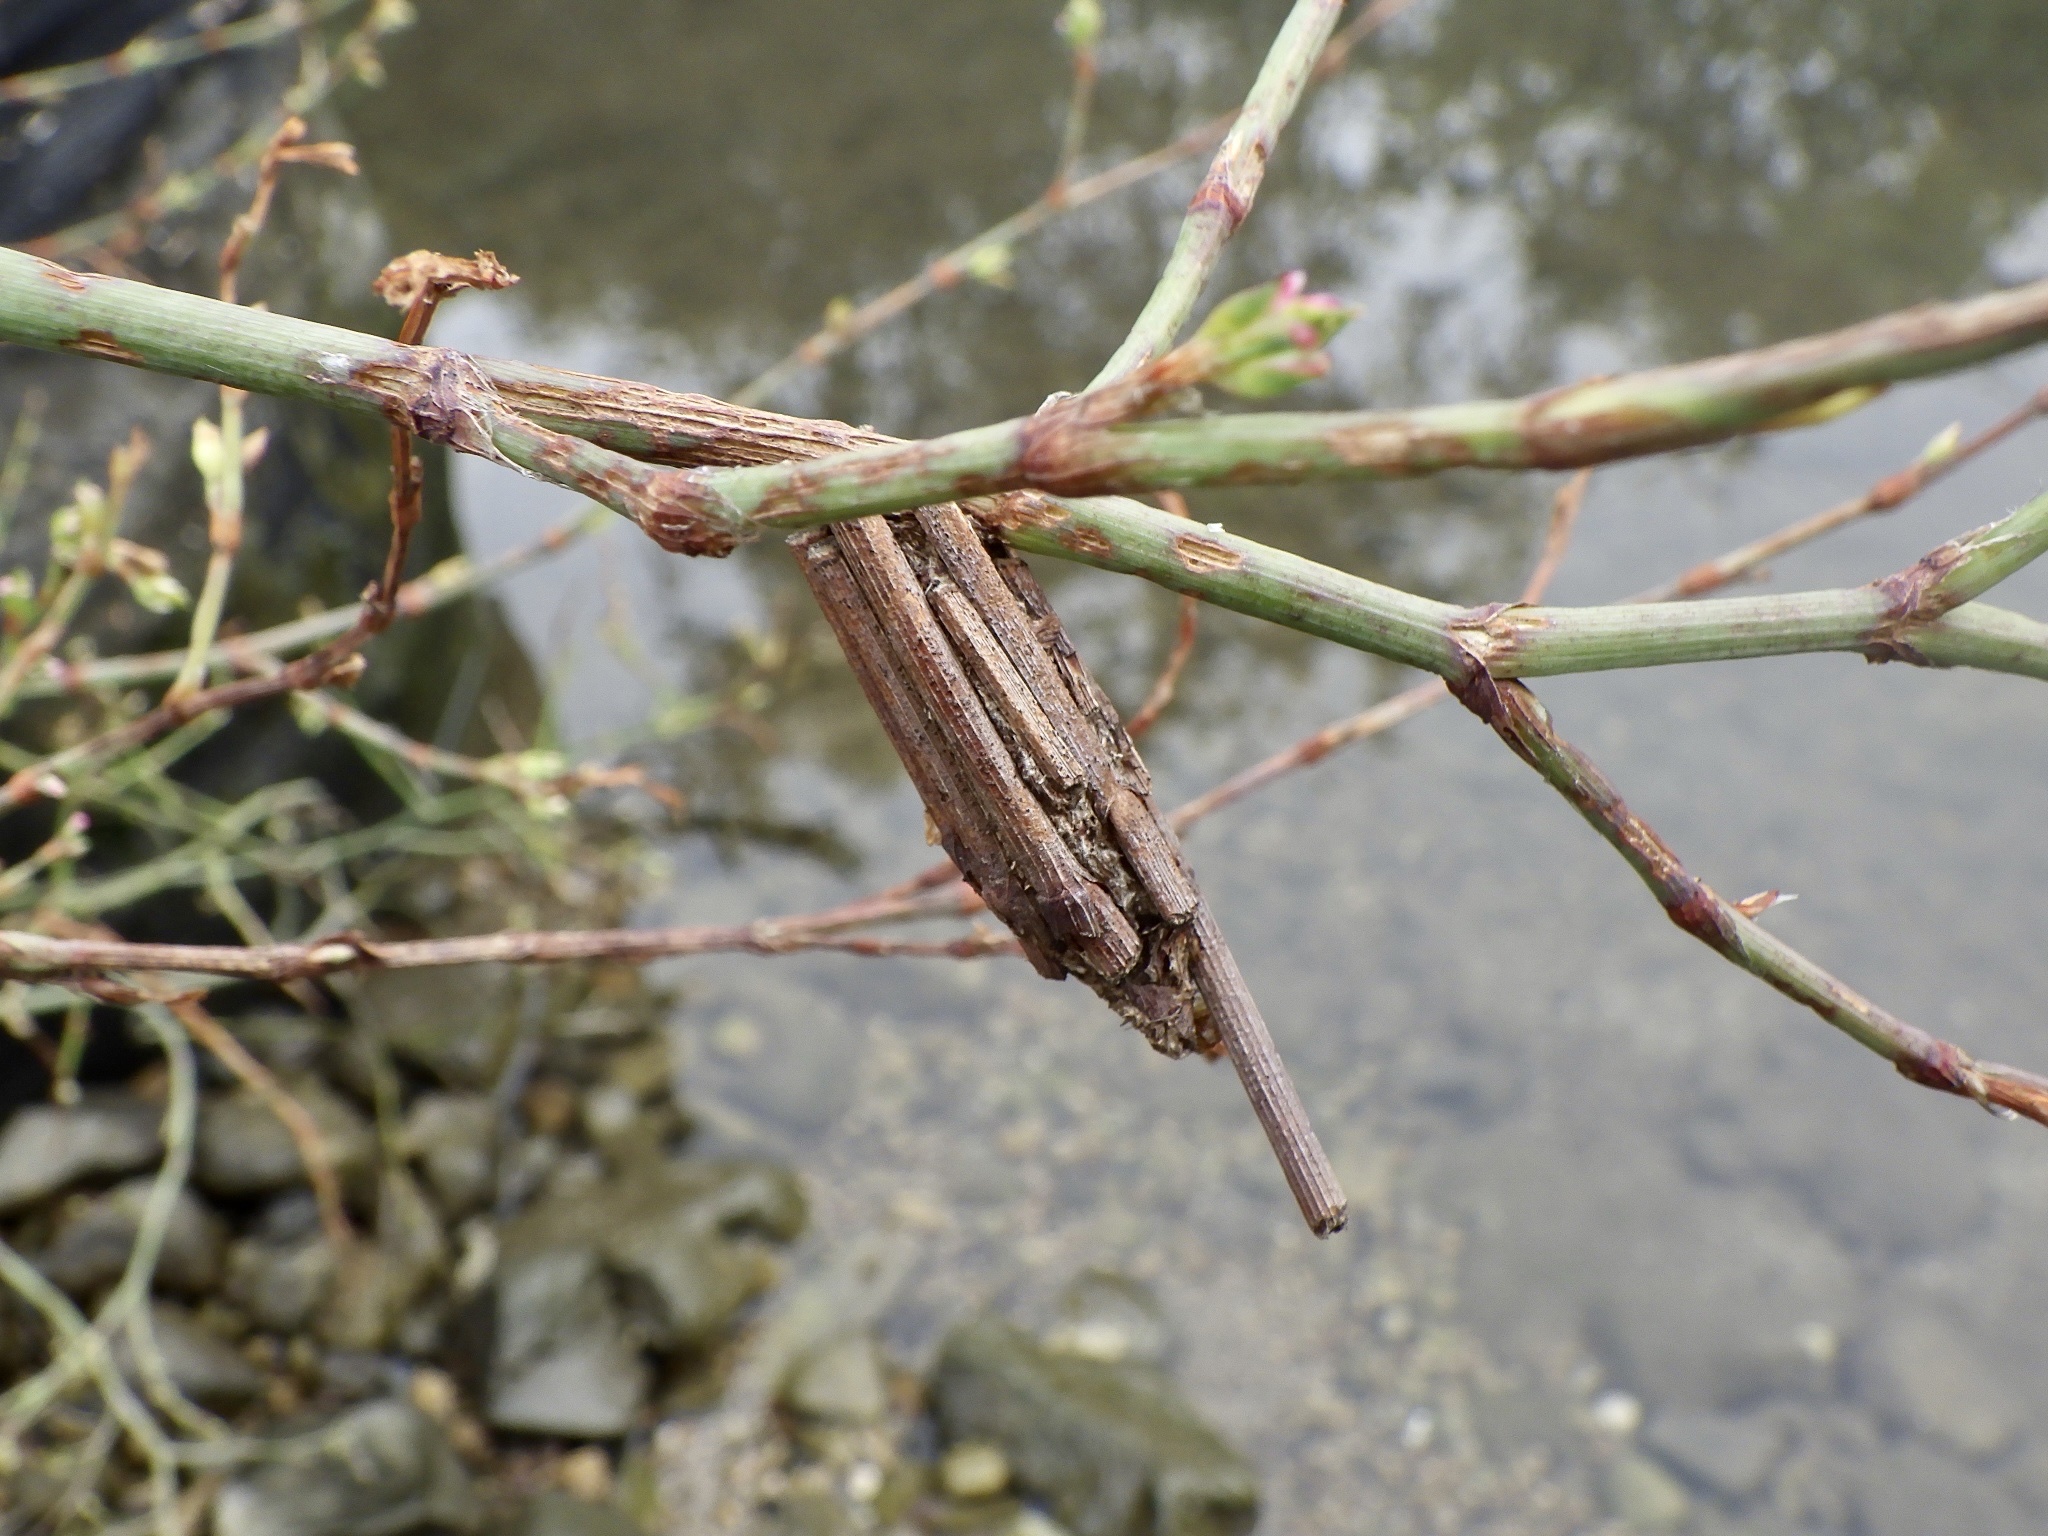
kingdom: Animalia
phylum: Arthropoda
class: Insecta
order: Lepidoptera
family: Psychidae
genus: Eumeta
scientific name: Eumeta minuscula
